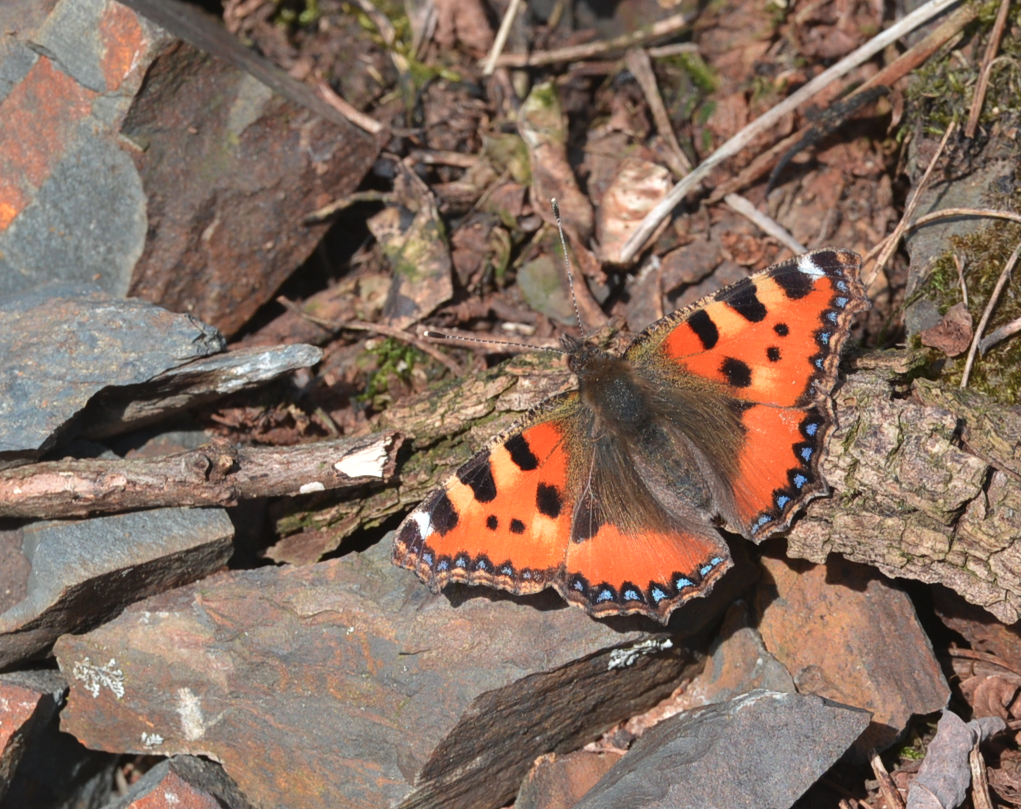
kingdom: Animalia
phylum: Arthropoda
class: Insecta
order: Lepidoptera
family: Nymphalidae
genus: Aglais
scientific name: Aglais urticae
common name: Small tortoiseshell
